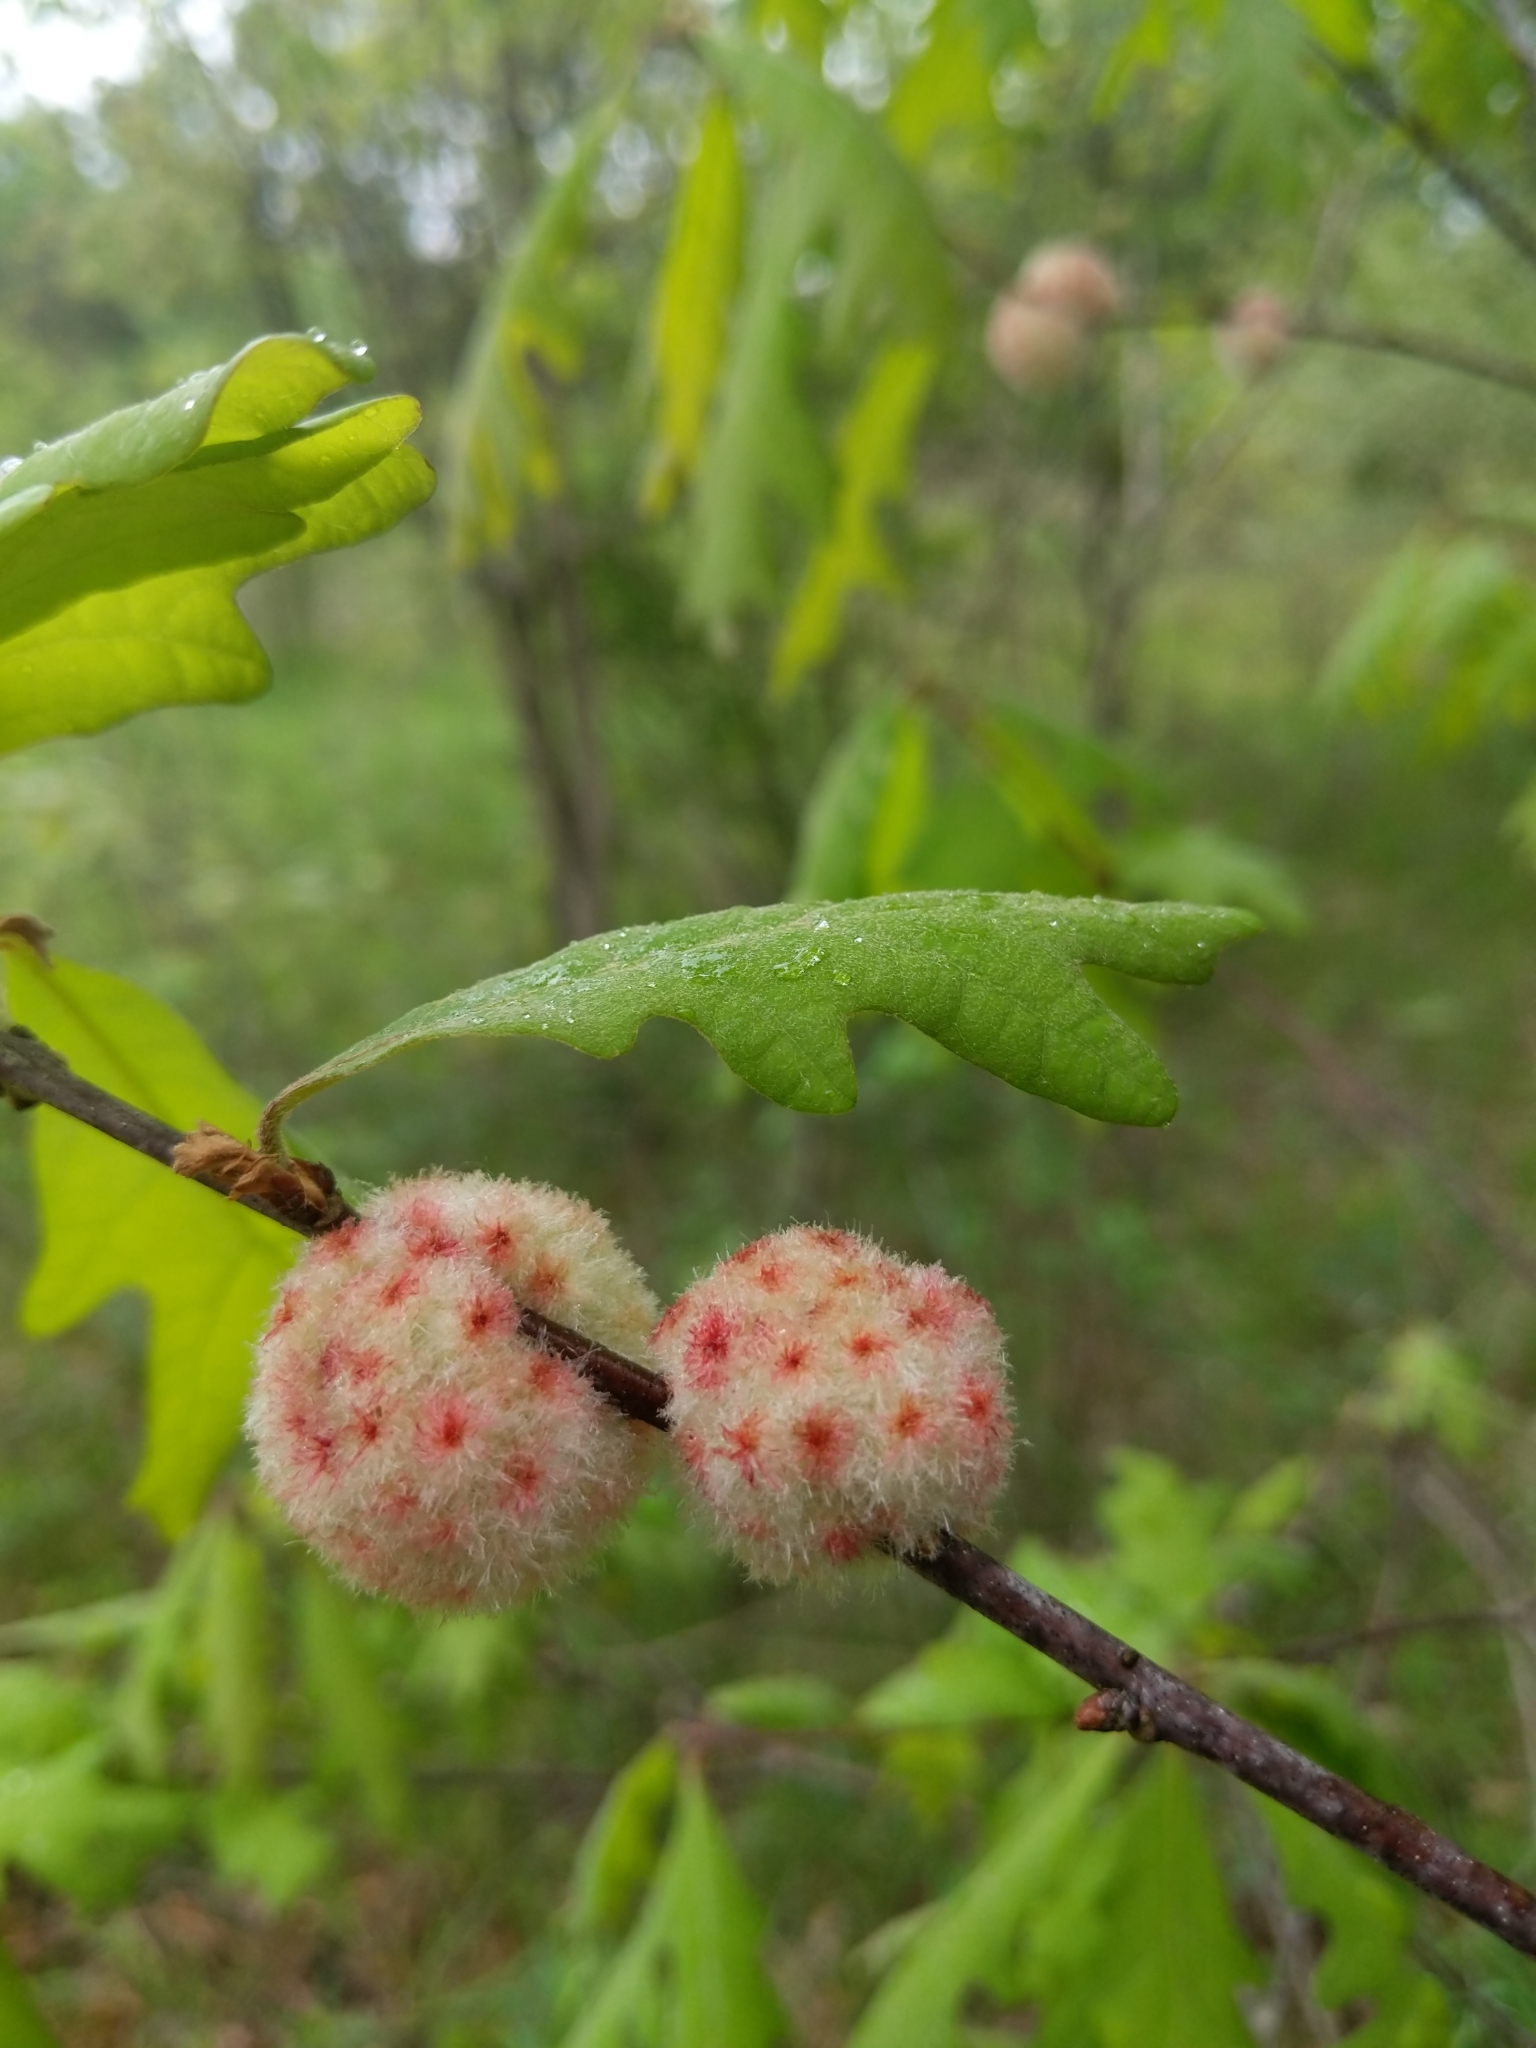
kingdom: Animalia
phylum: Arthropoda
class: Insecta
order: Hymenoptera
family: Cynipidae
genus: Callirhytis
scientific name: Callirhytis
